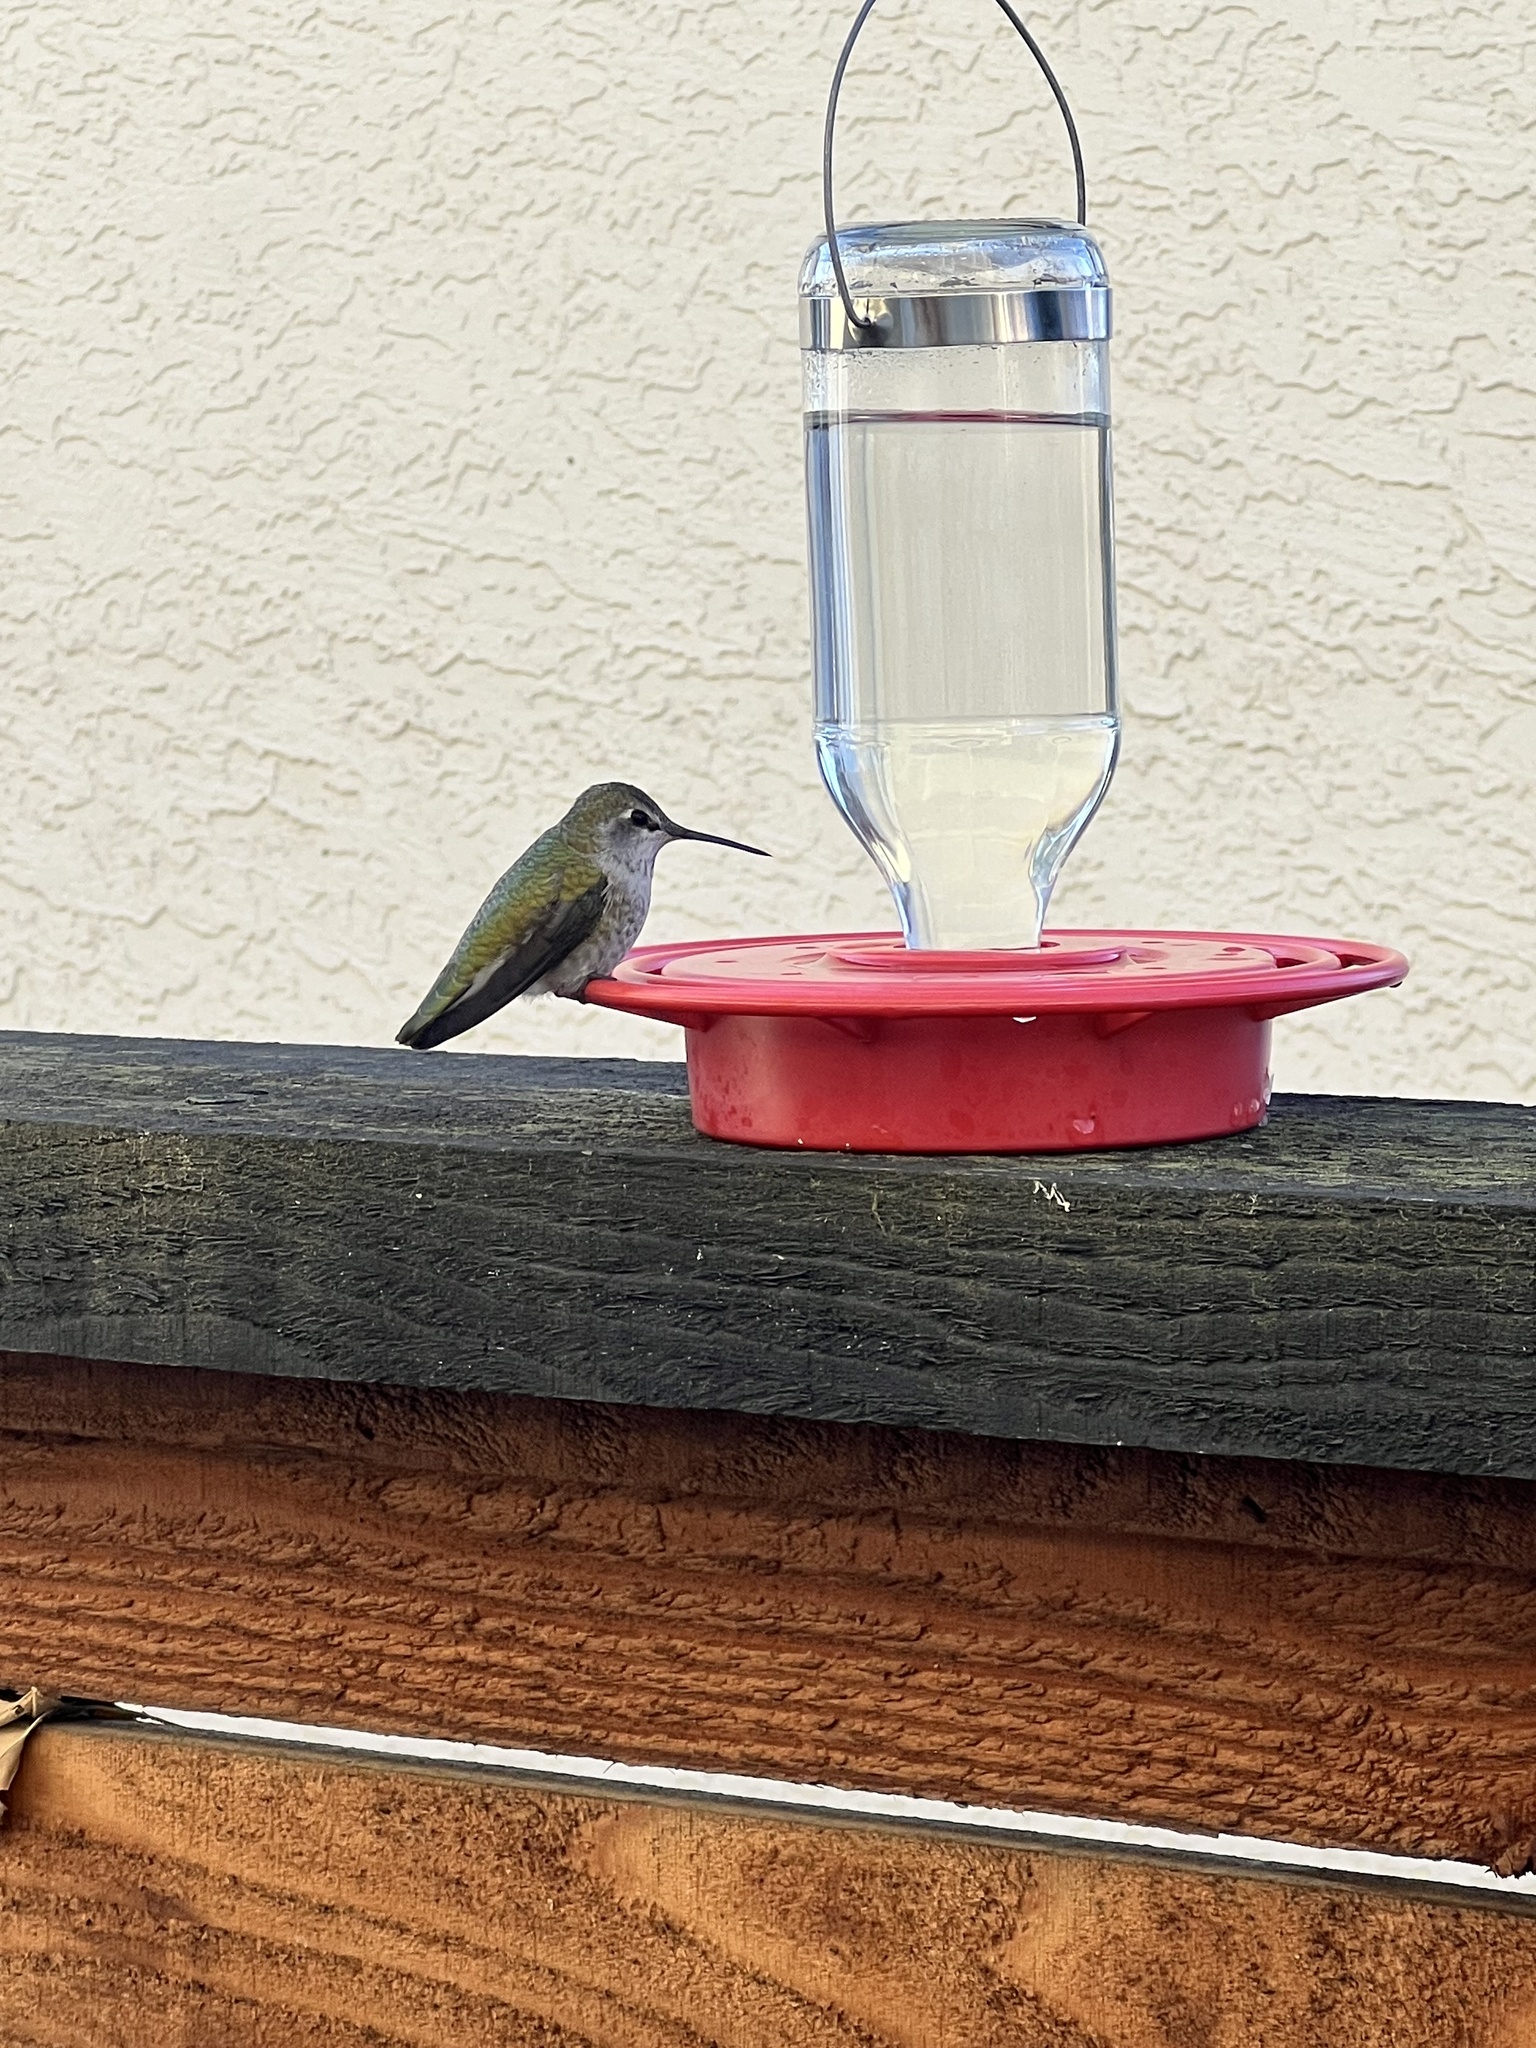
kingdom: Animalia
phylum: Chordata
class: Aves
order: Apodiformes
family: Trochilidae
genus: Calypte
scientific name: Calypte anna
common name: Anna's hummingbird
